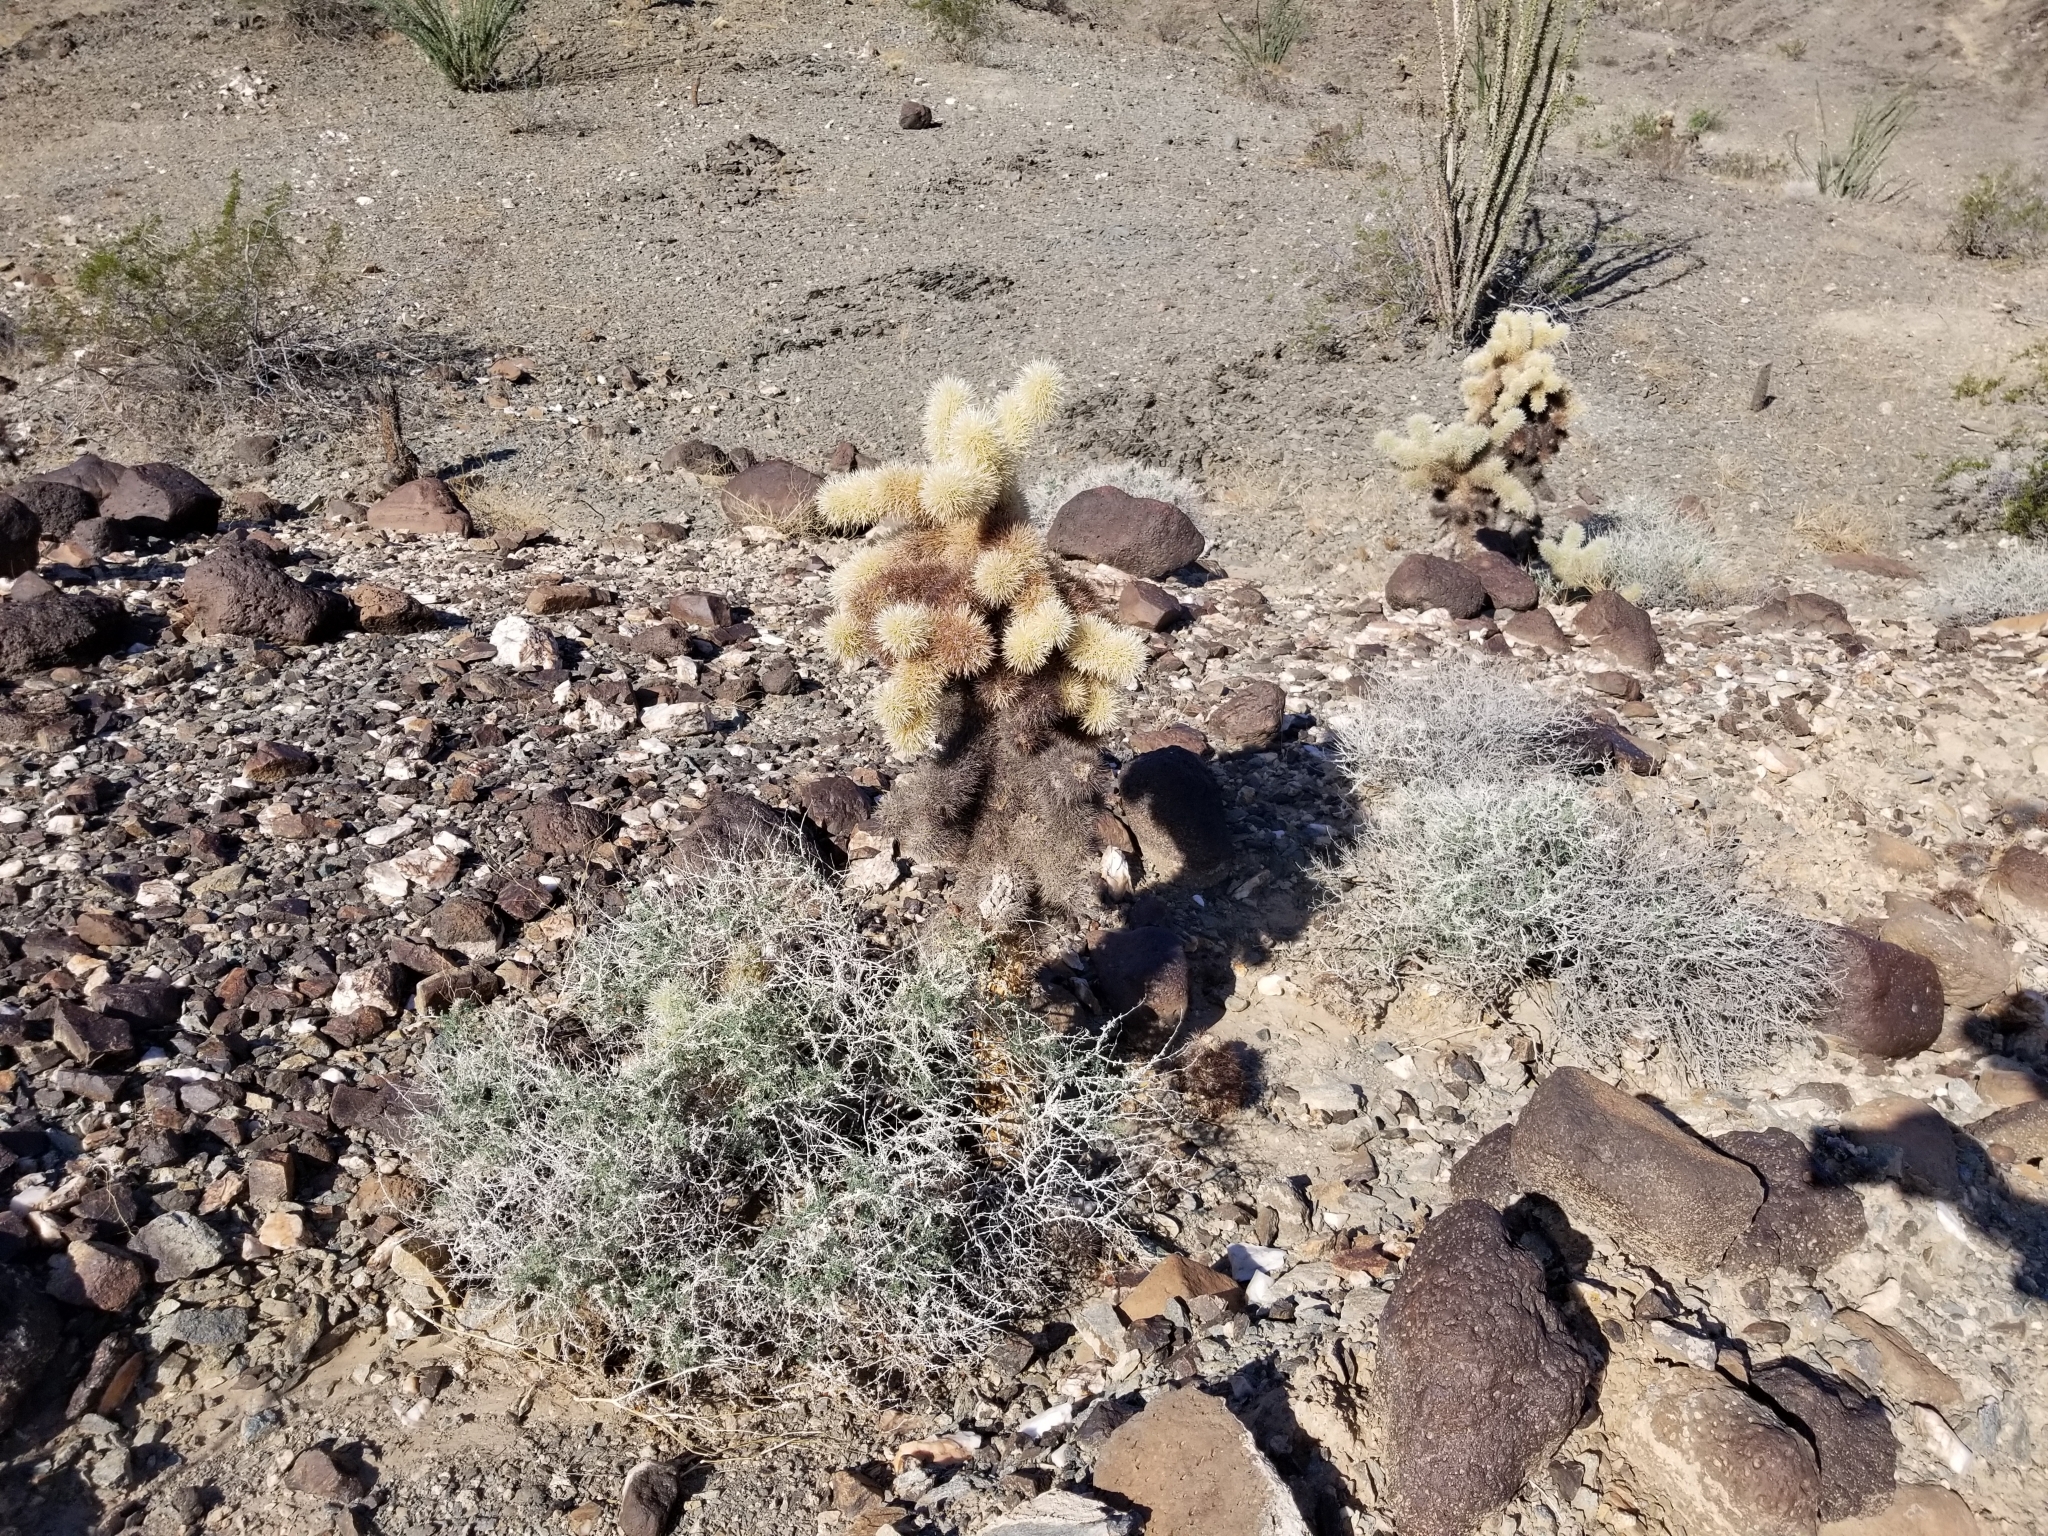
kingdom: Plantae
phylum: Tracheophyta
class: Magnoliopsida
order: Caryophyllales
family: Cactaceae
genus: Cylindropuntia
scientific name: Cylindropuntia fosbergii
